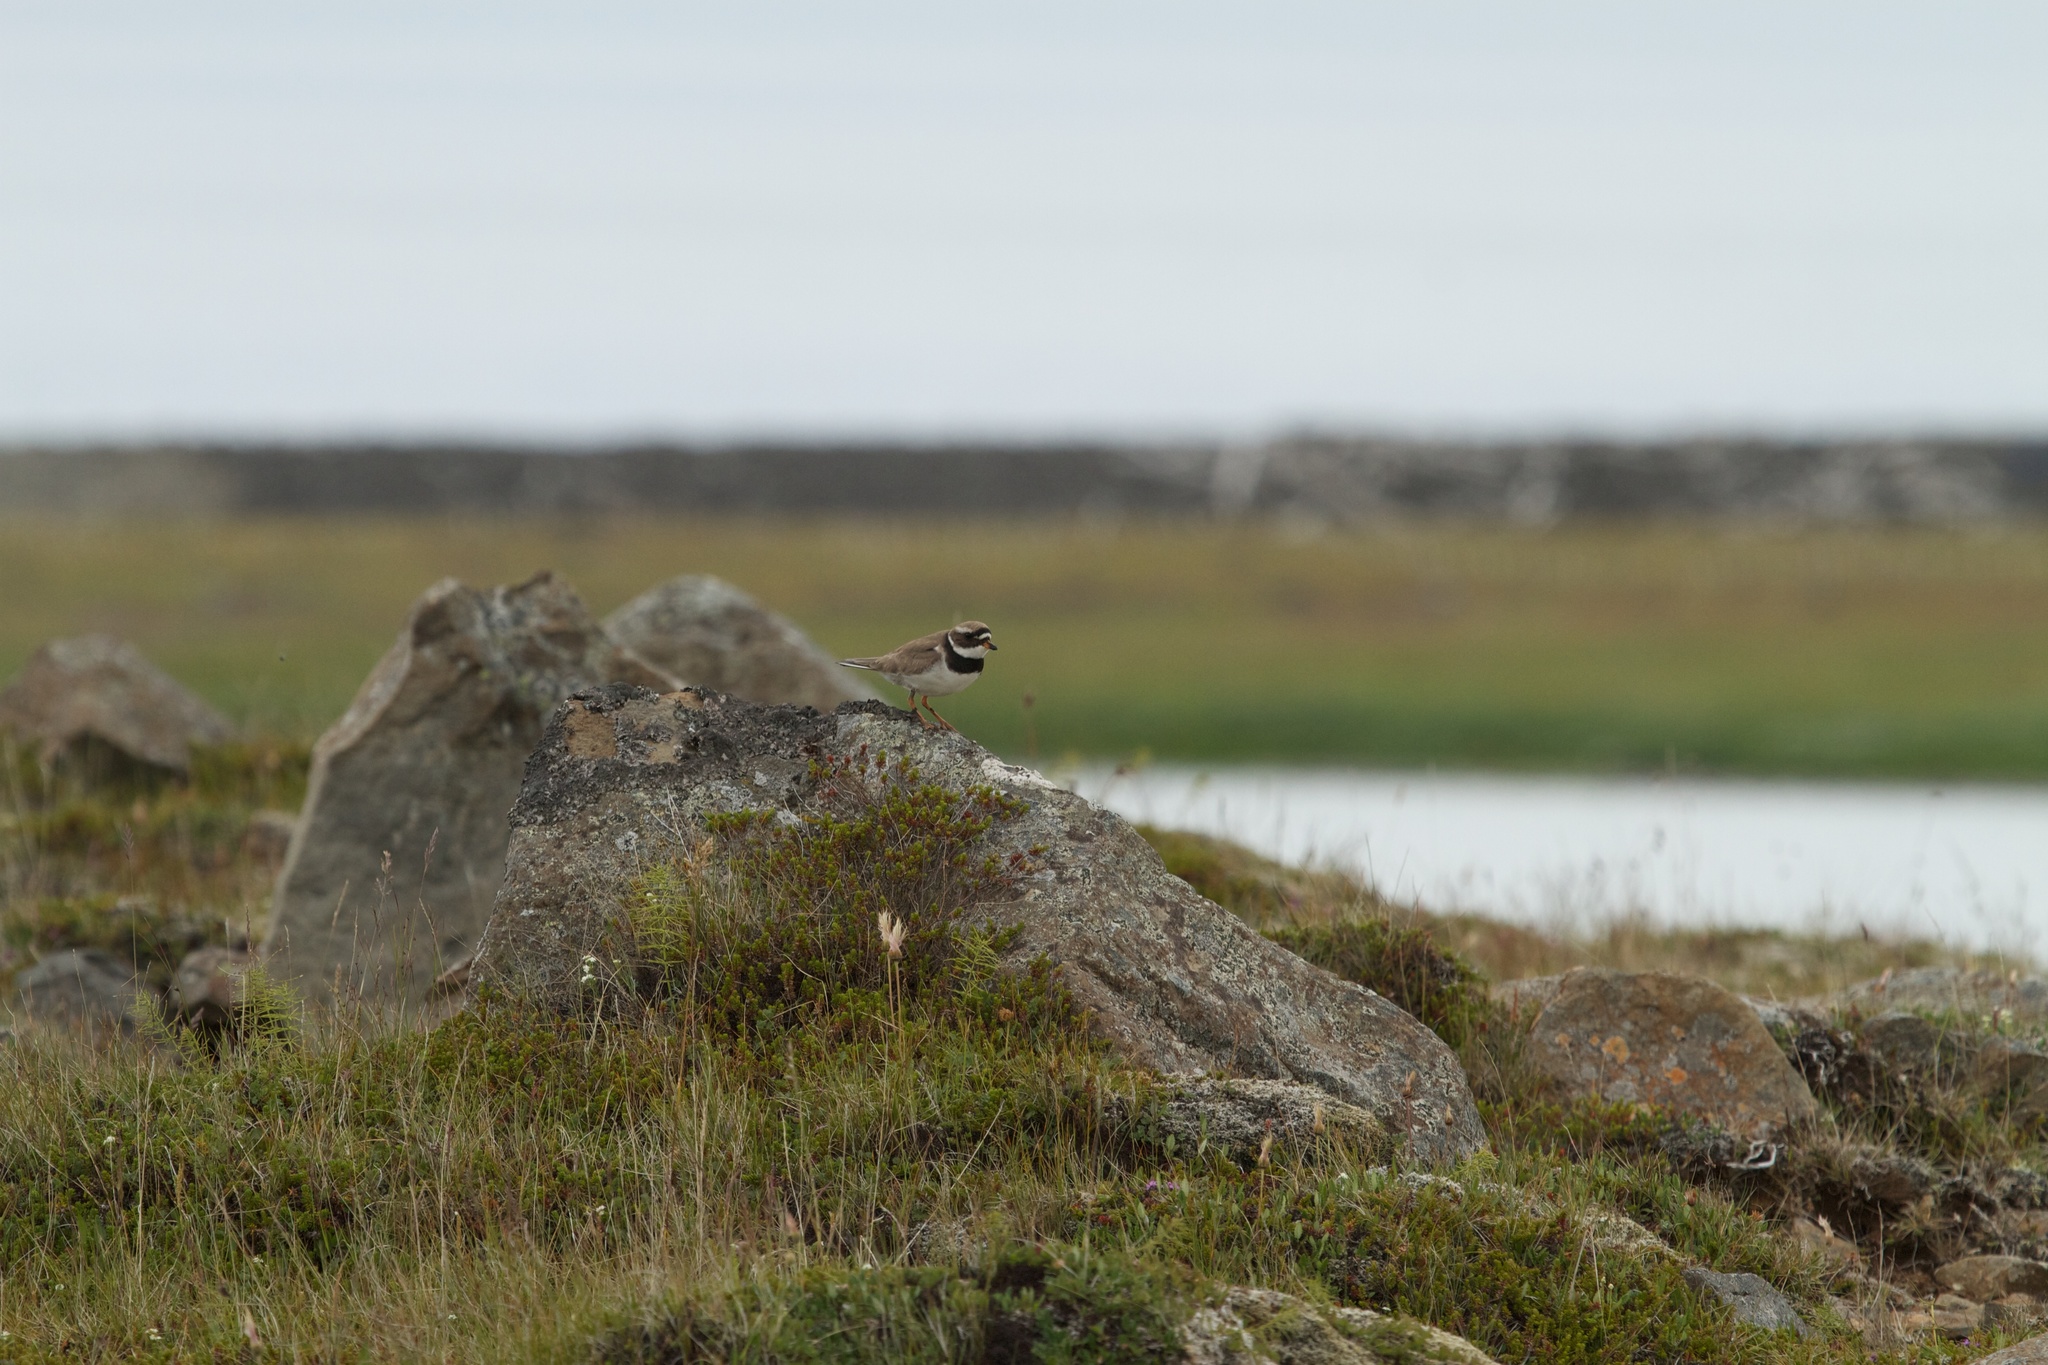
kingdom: Animalia
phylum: Chordata
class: Aves
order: Charadriiformes
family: Charadriidae
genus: Charadrius
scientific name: Charadrius hiaticula
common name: Common ringed plover
